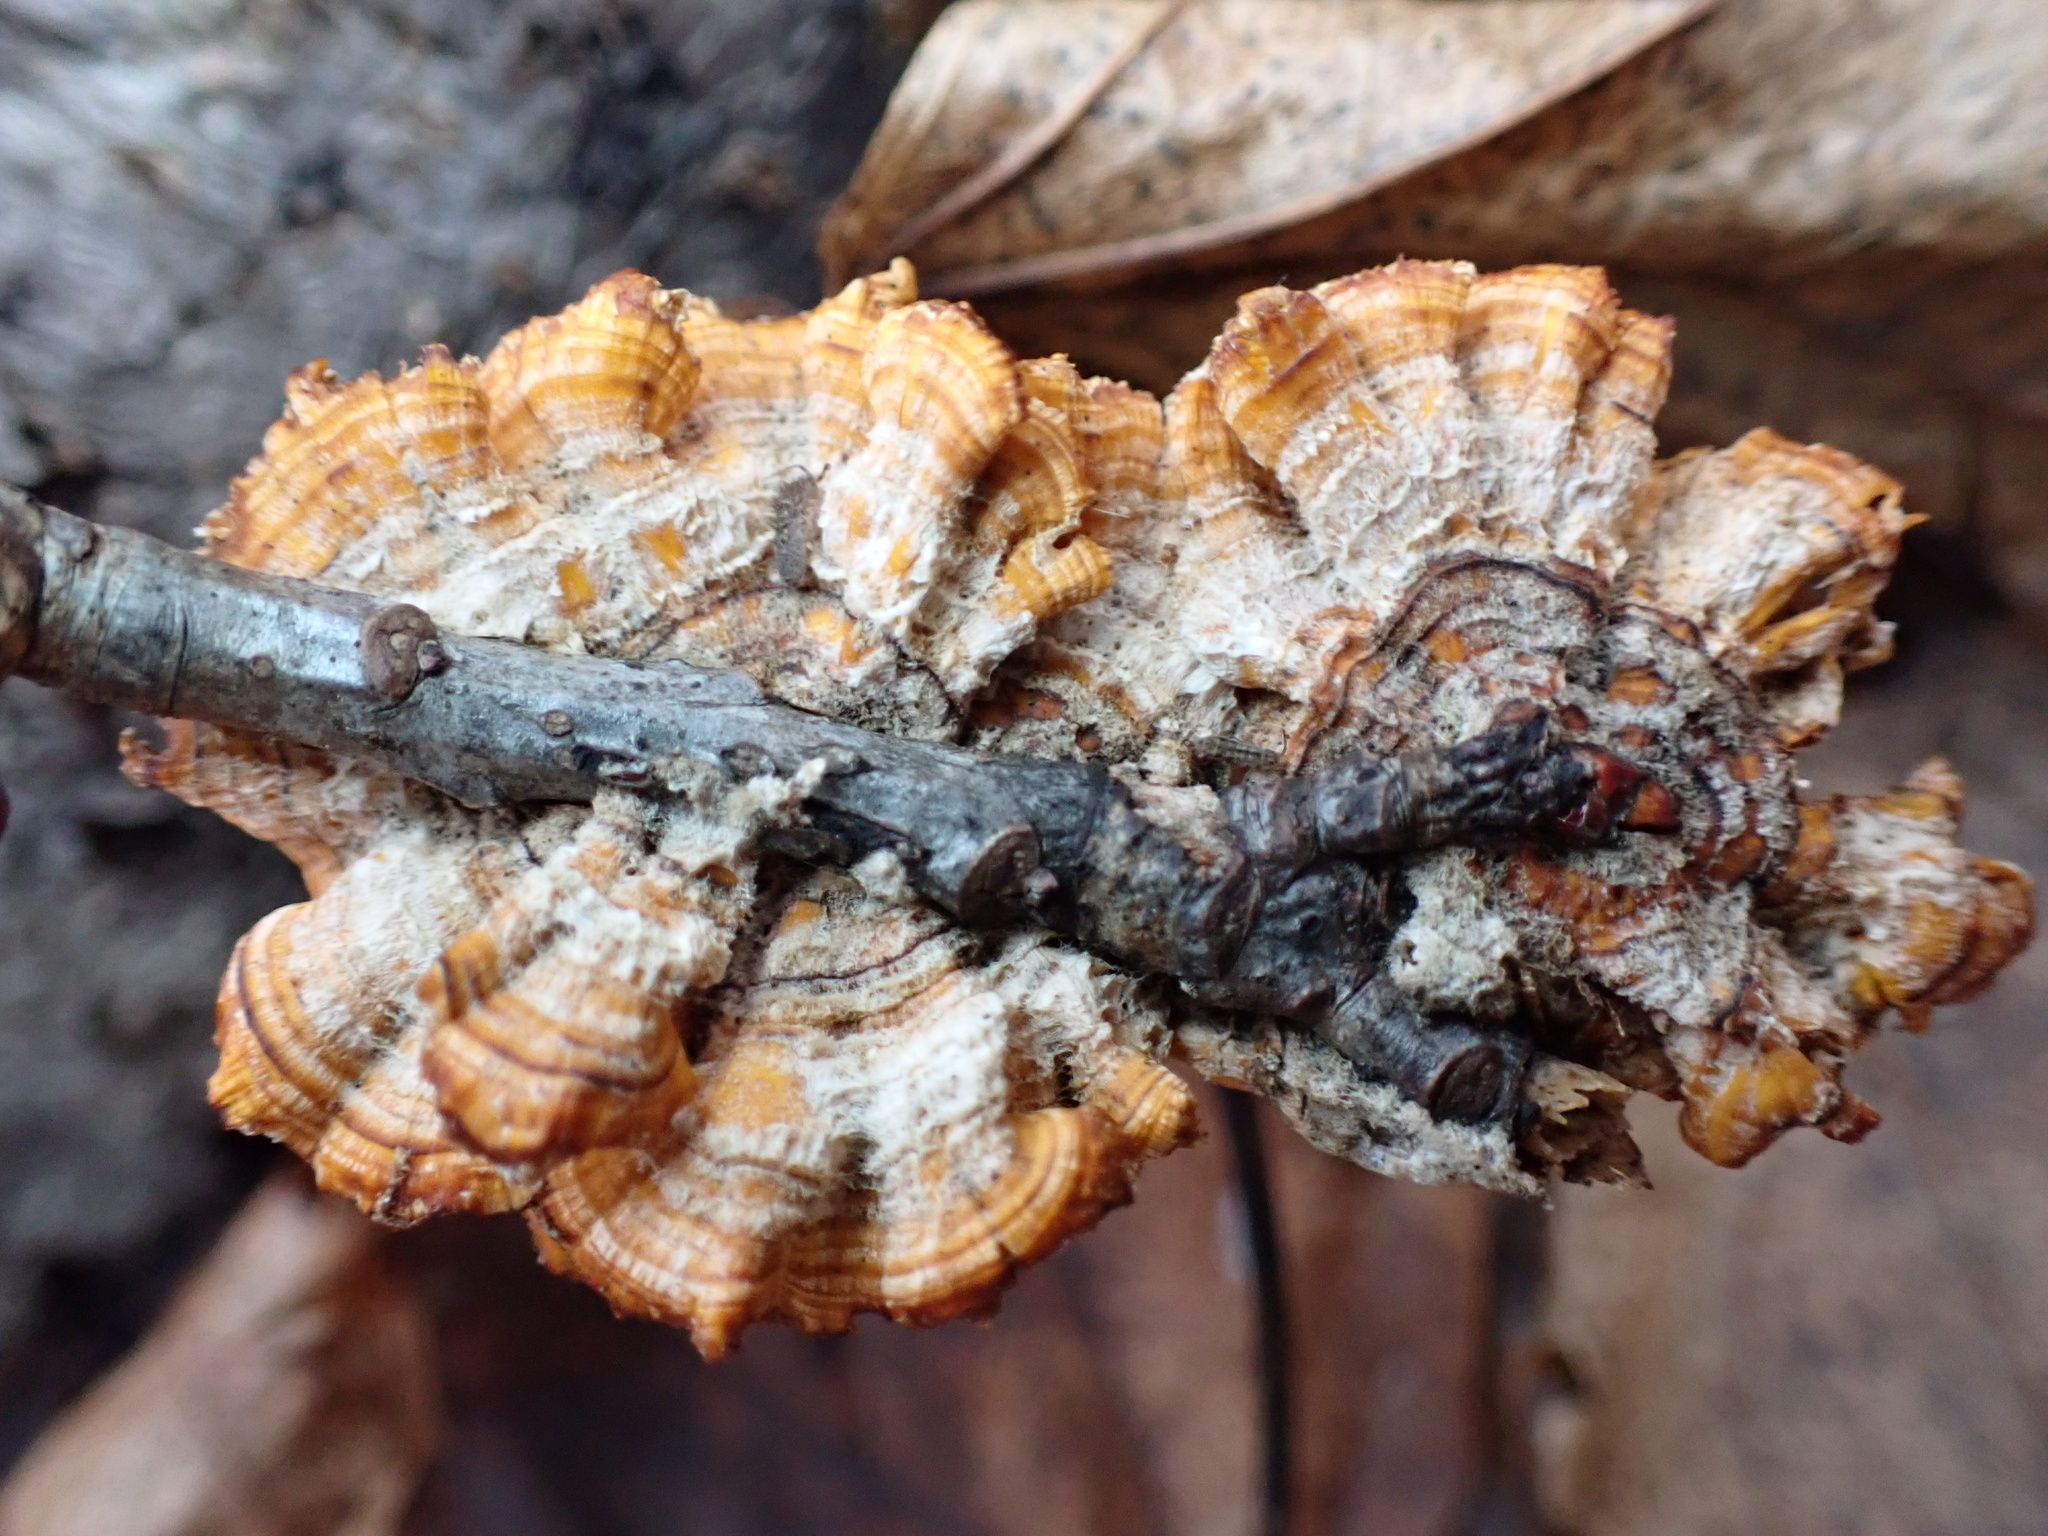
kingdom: Fungi
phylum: Basidiomycota
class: Agaricomycetes
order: Russulales
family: Stereaceae
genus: Stereum
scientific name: Stereum complicatum
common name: Crowded parchment
